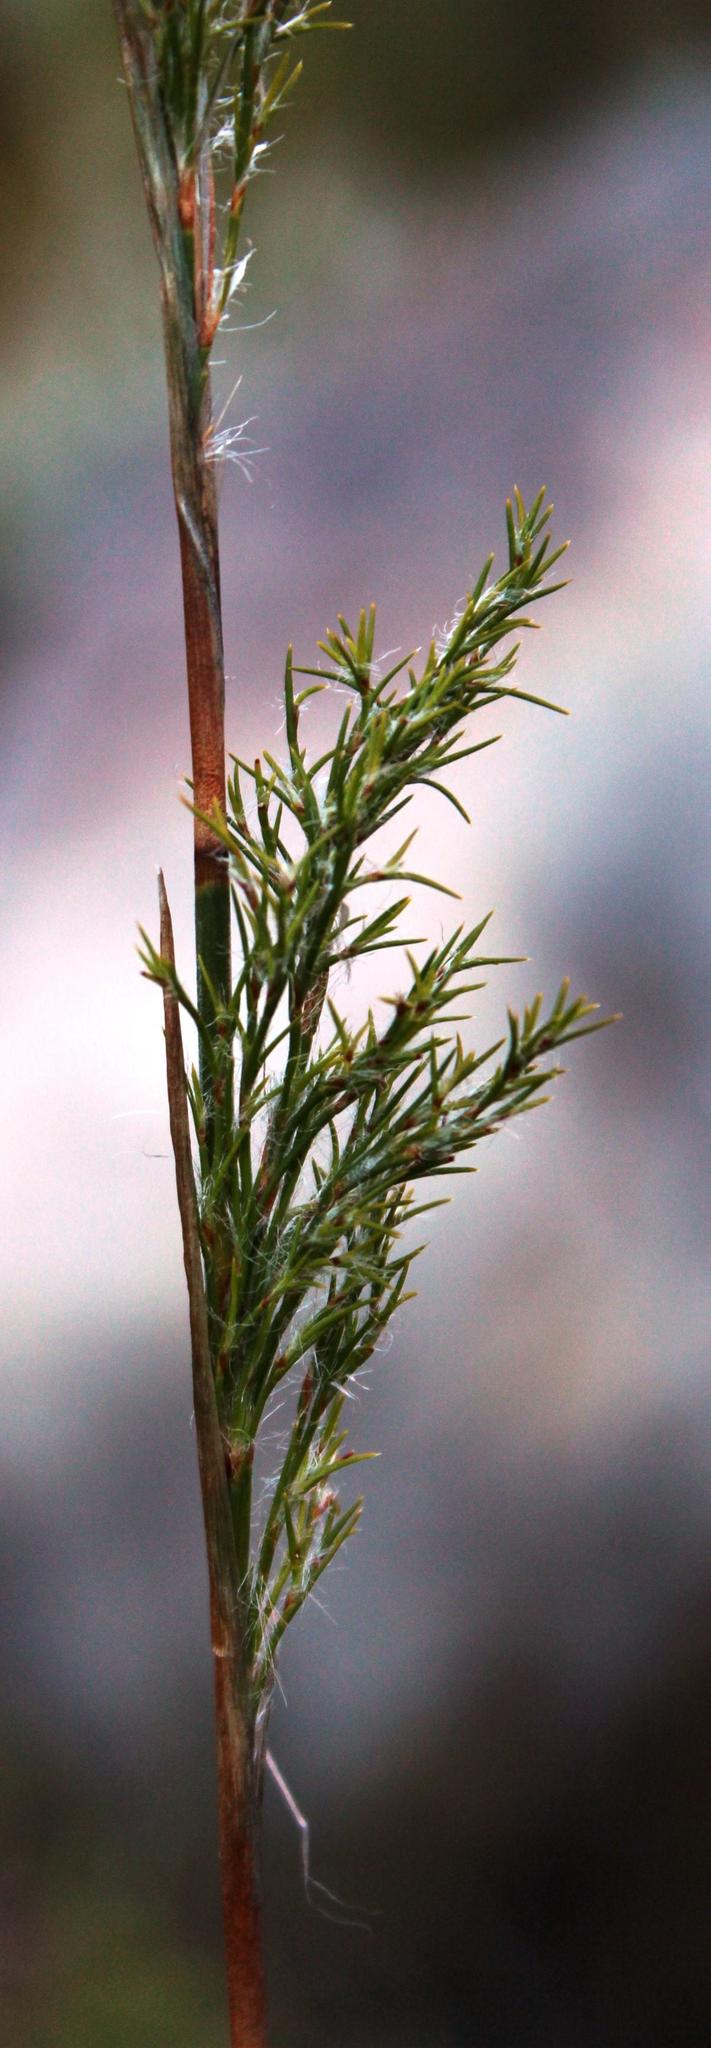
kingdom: Plantae
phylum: Tracheophyta
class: Liliopsida
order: Poales
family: Restionaceae
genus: Thamnochortus
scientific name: Thamnochortus fruticosus
